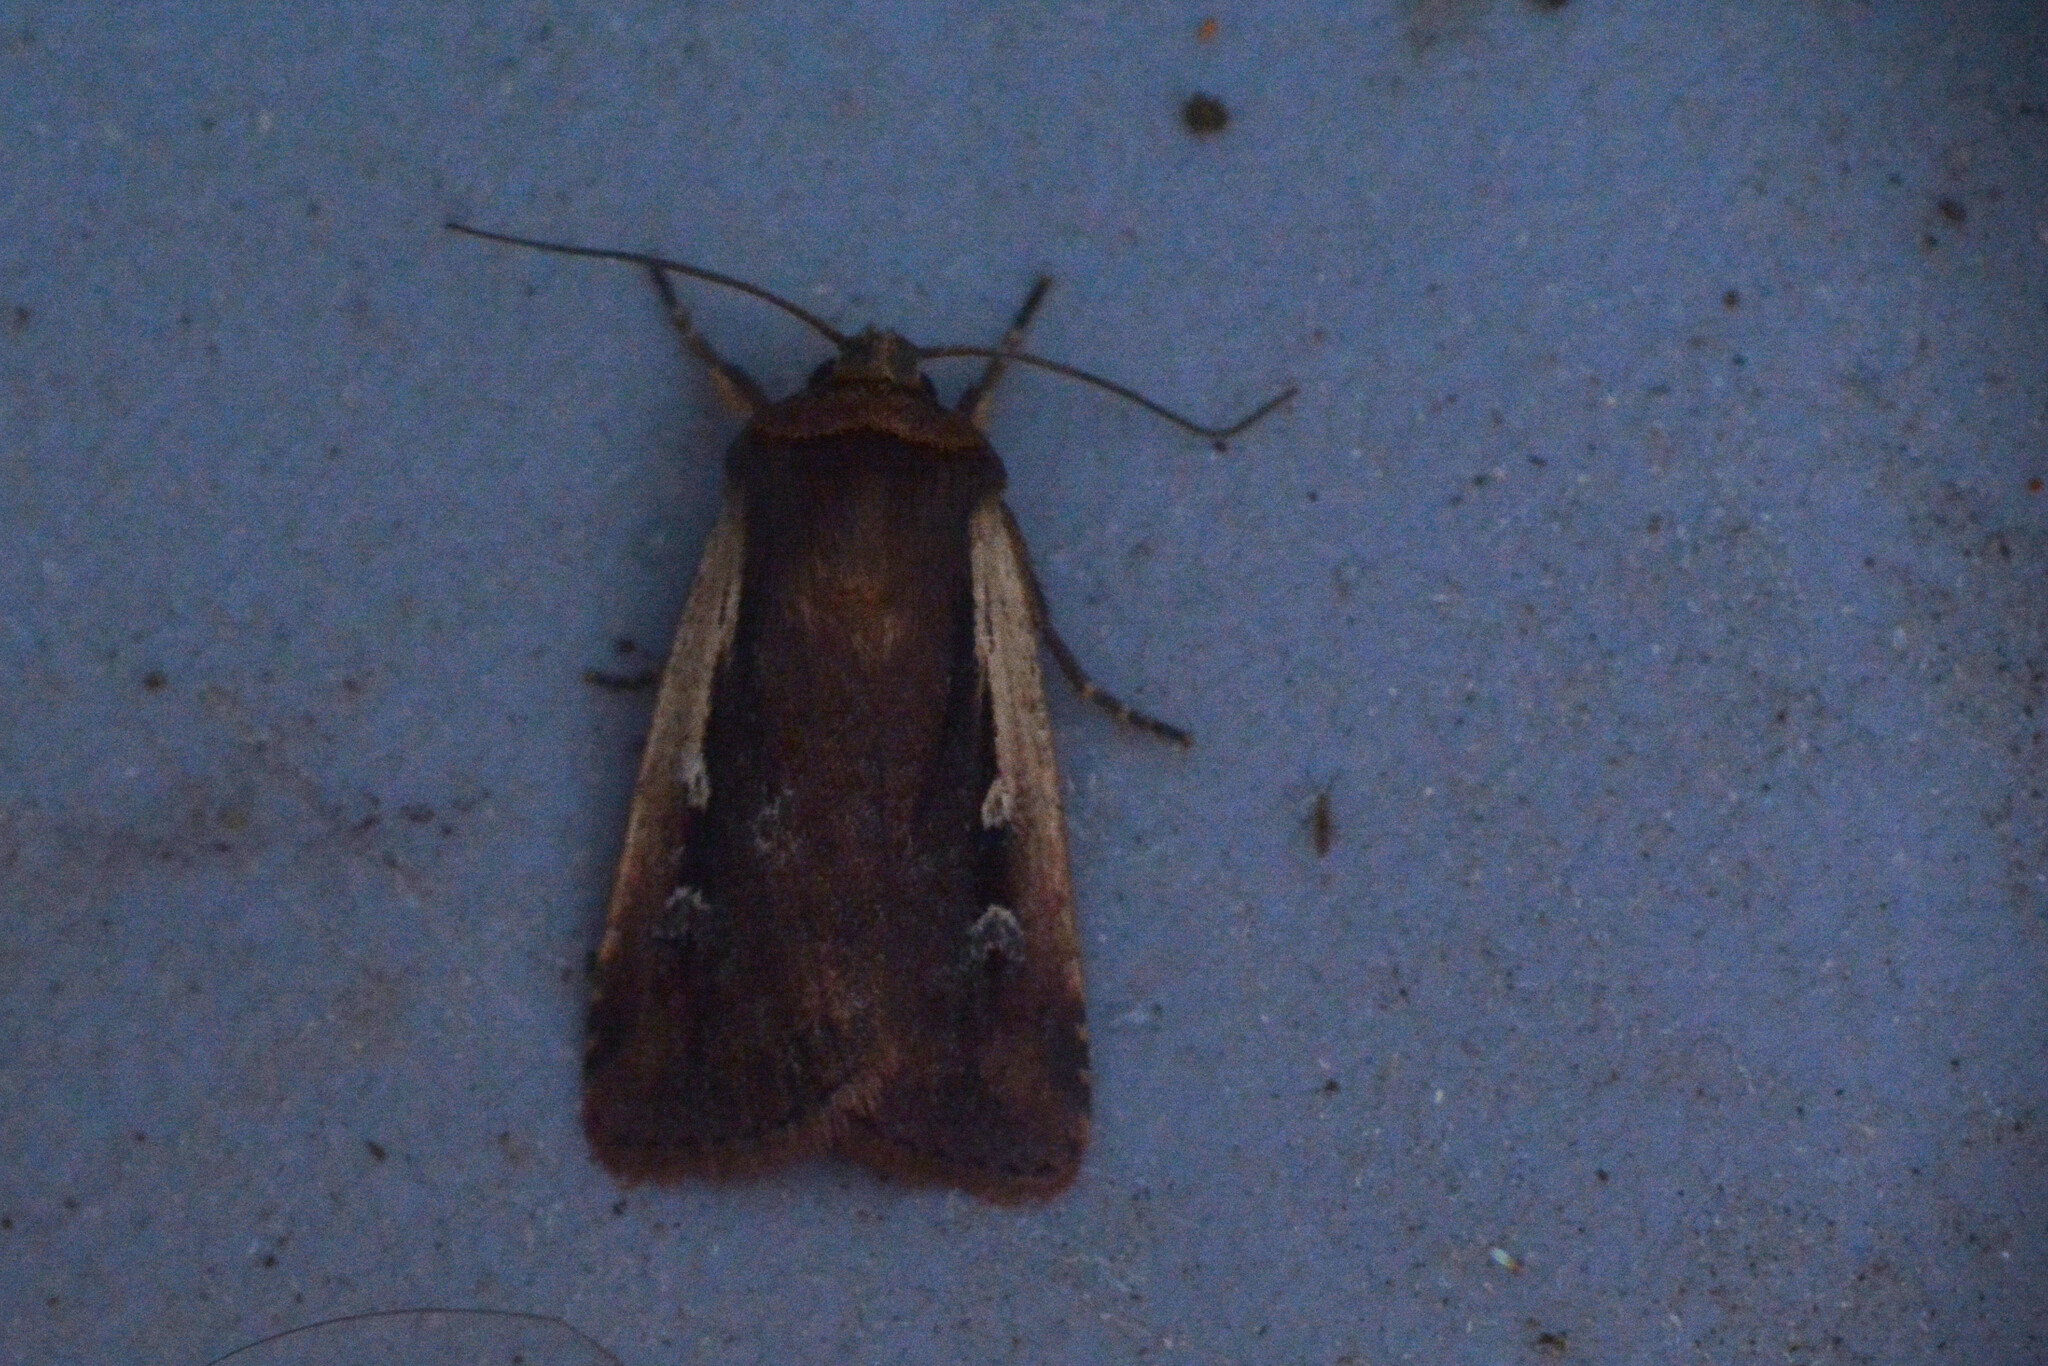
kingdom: Animalia
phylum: Arthropoda
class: Insecta
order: Lepidoptera
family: Noctuidae
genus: Ochropleura
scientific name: Ochropleura plecta
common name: Flame shoulder
